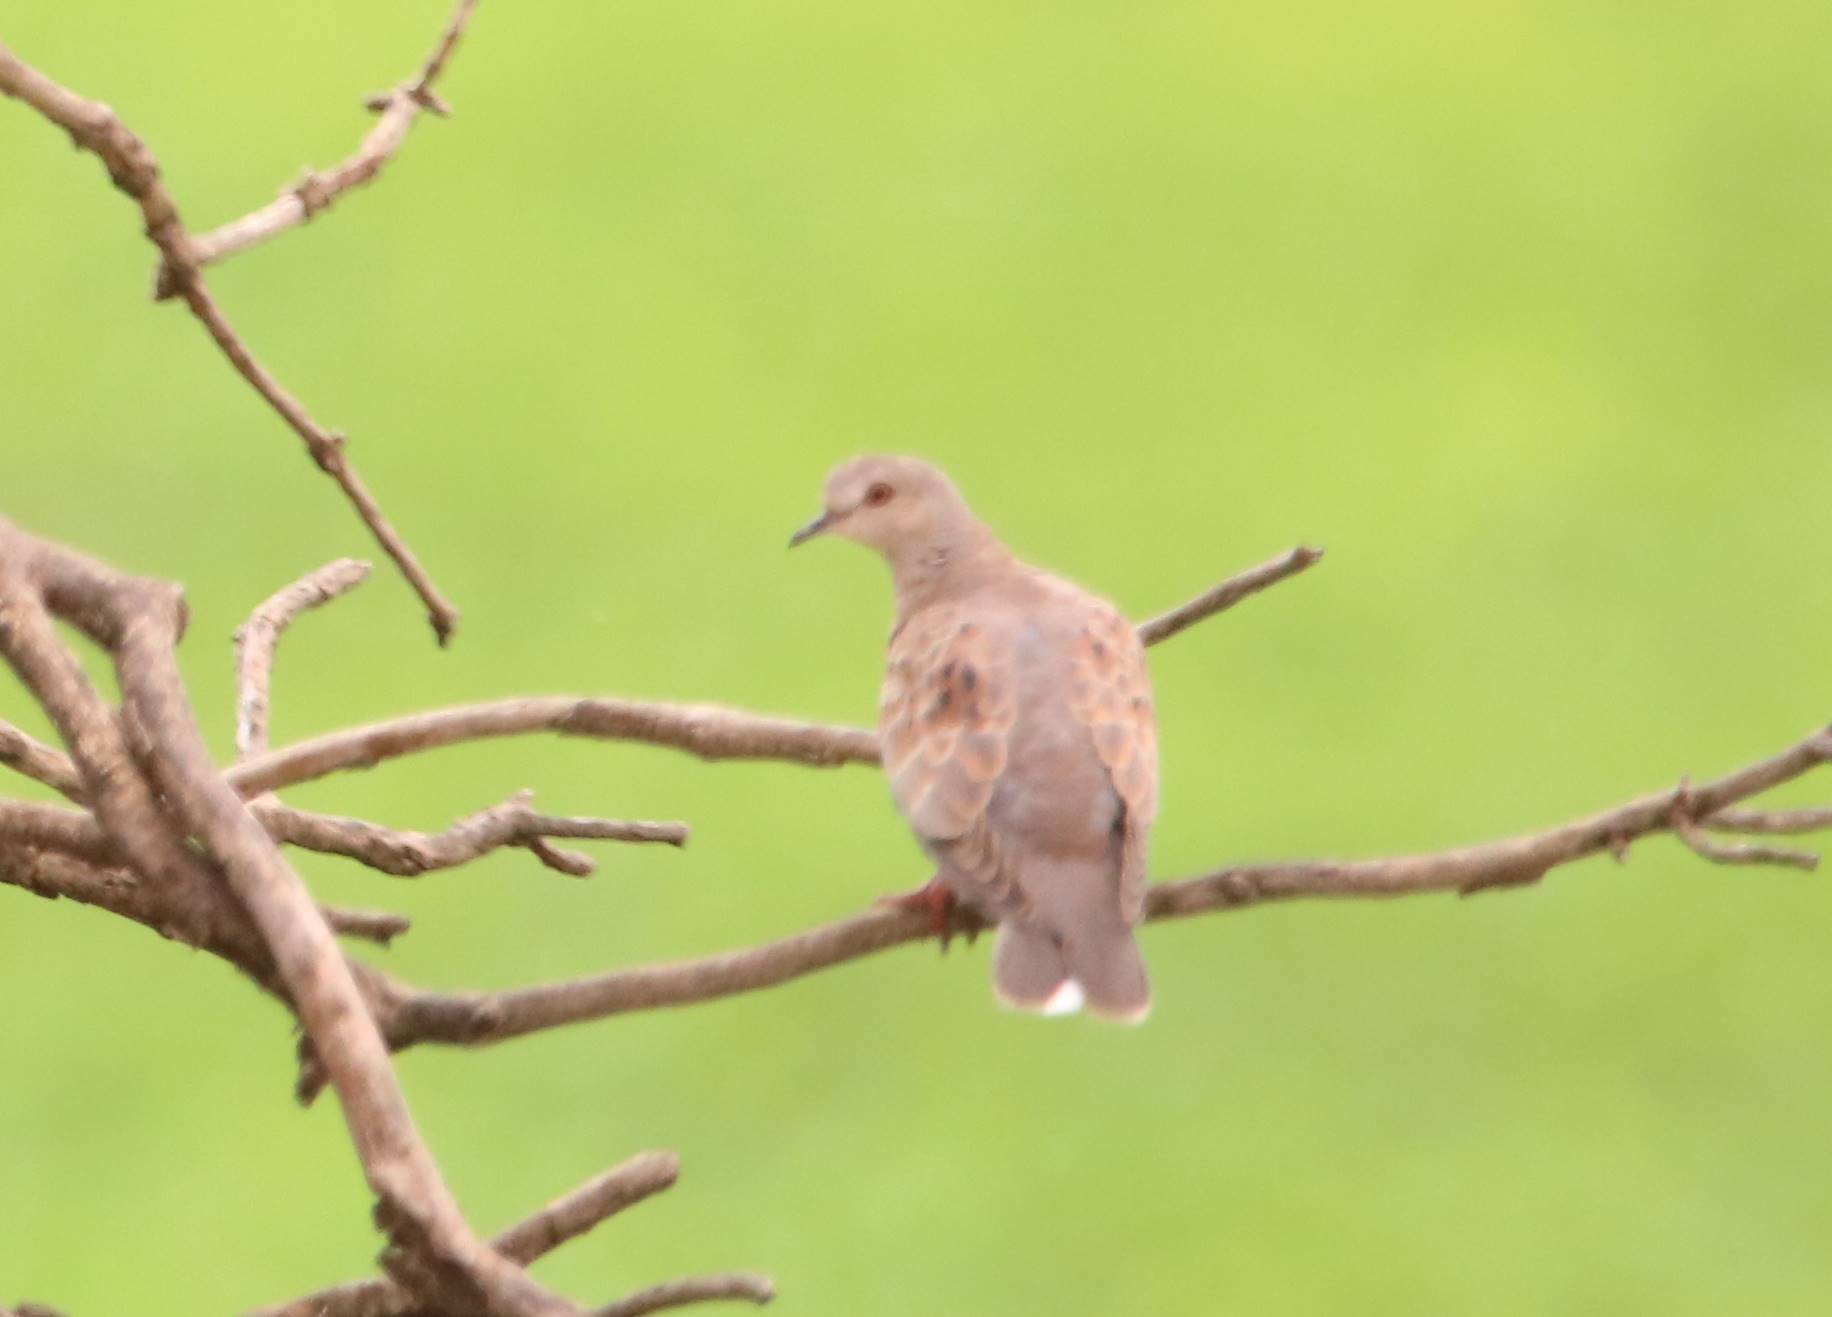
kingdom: Animalia
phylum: Chordata
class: Aves
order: Columbiformes
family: Columbidae
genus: Streptopelia
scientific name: Streptopelia turtur
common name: European turtle dove
